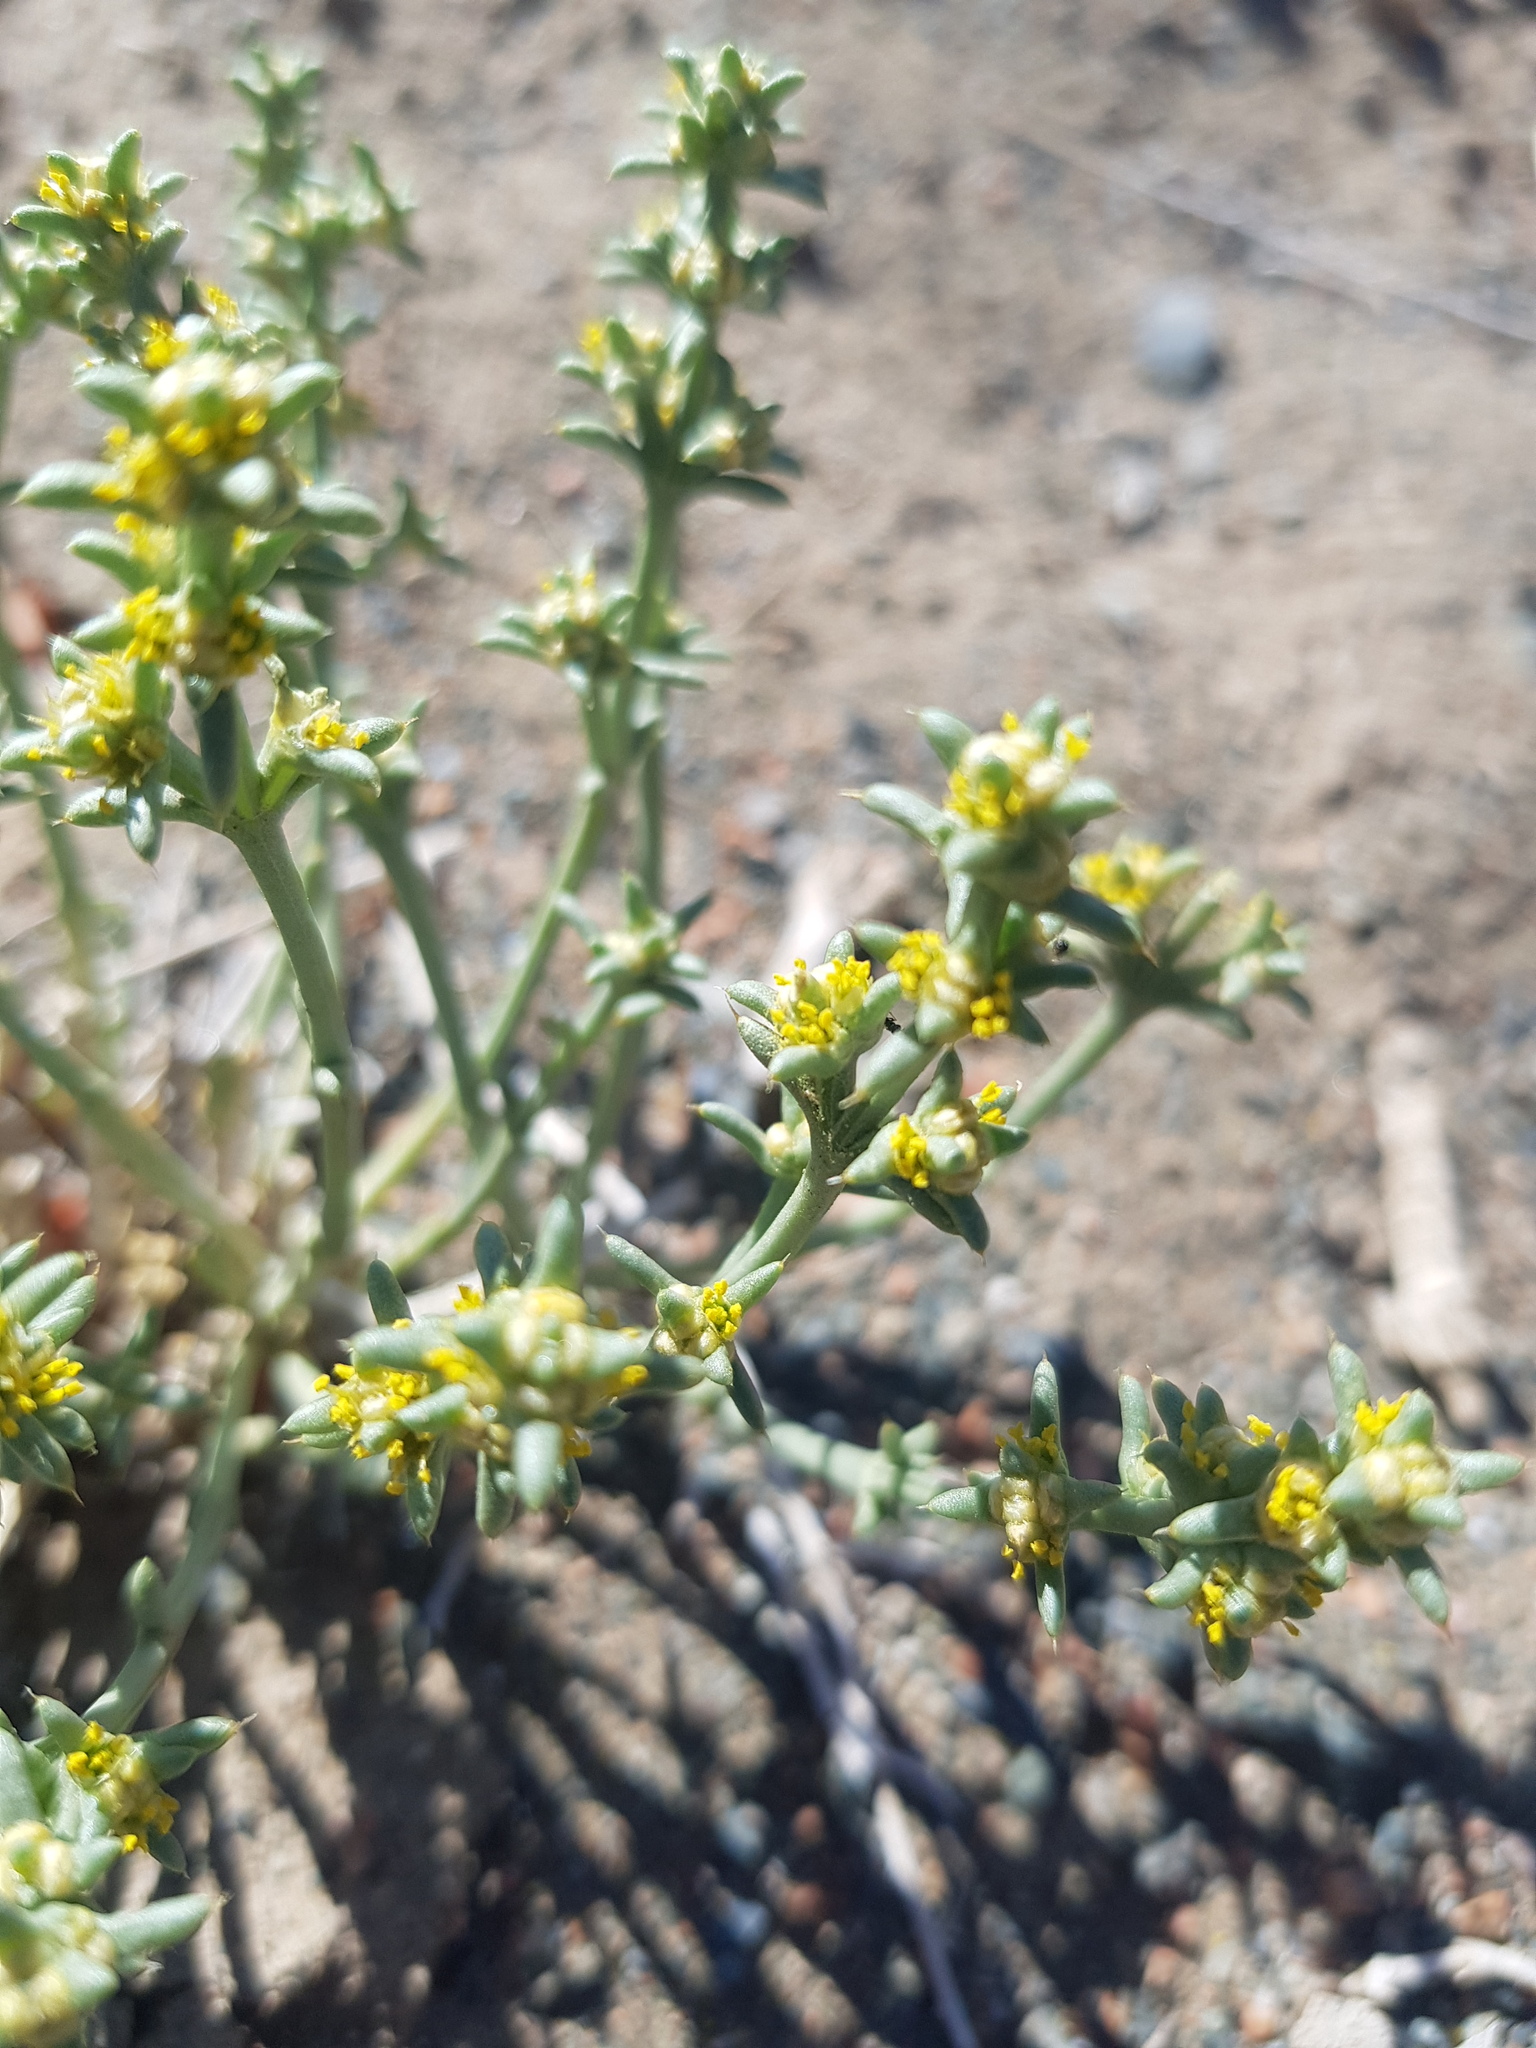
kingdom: Plantae
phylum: Tracheophyta
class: Magnoliopsida
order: Caryophyllales
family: Amaranthaceae
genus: Anabasis
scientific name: Anabasis brevifolia
